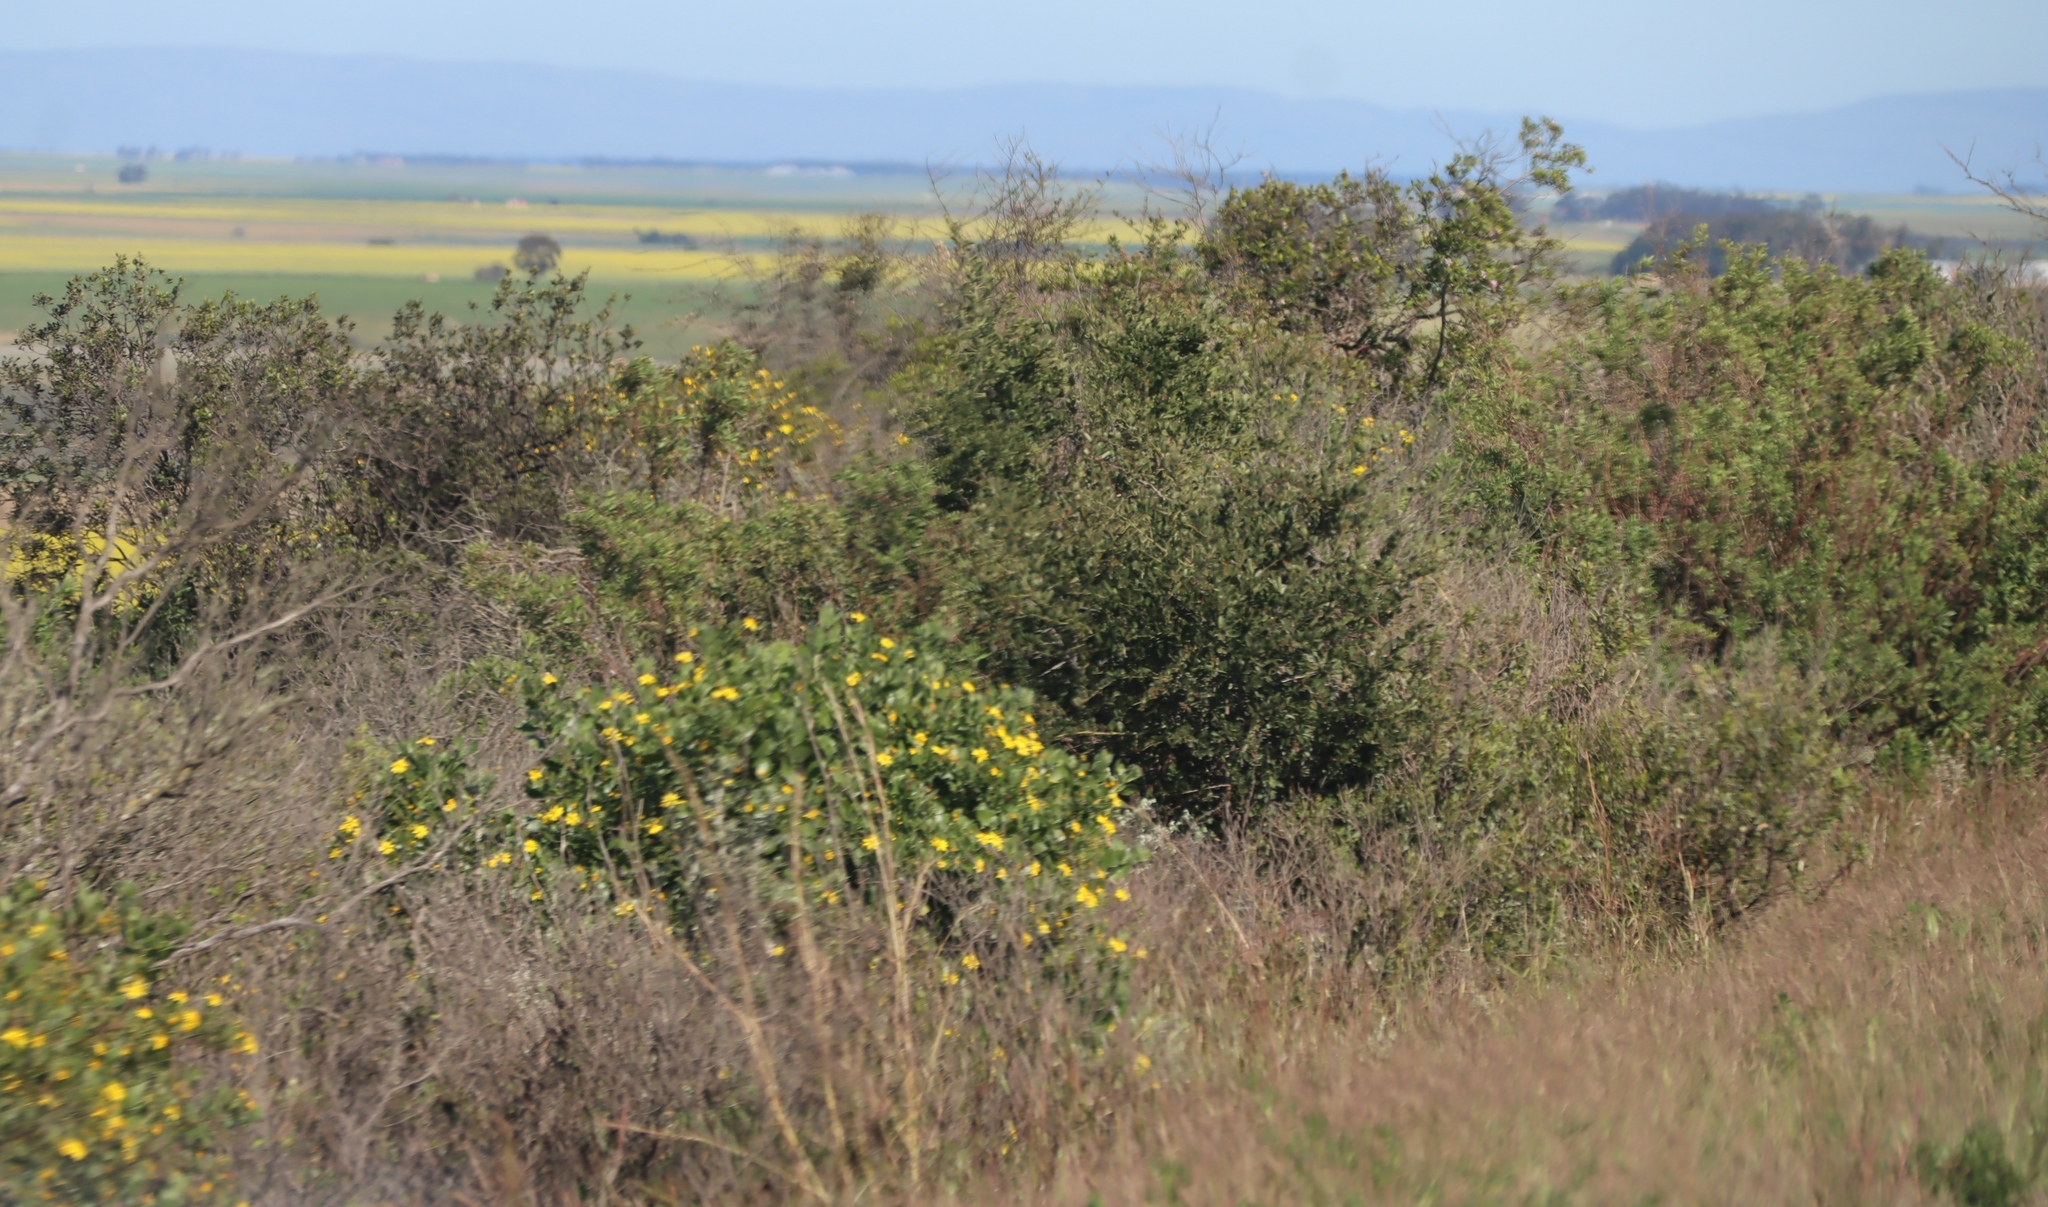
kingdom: Plantae
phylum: Tracheophyta
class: Magnoliopsida
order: Asterales
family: Asteraceae
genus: Osteospermum
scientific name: Osteospermum moniliferum
